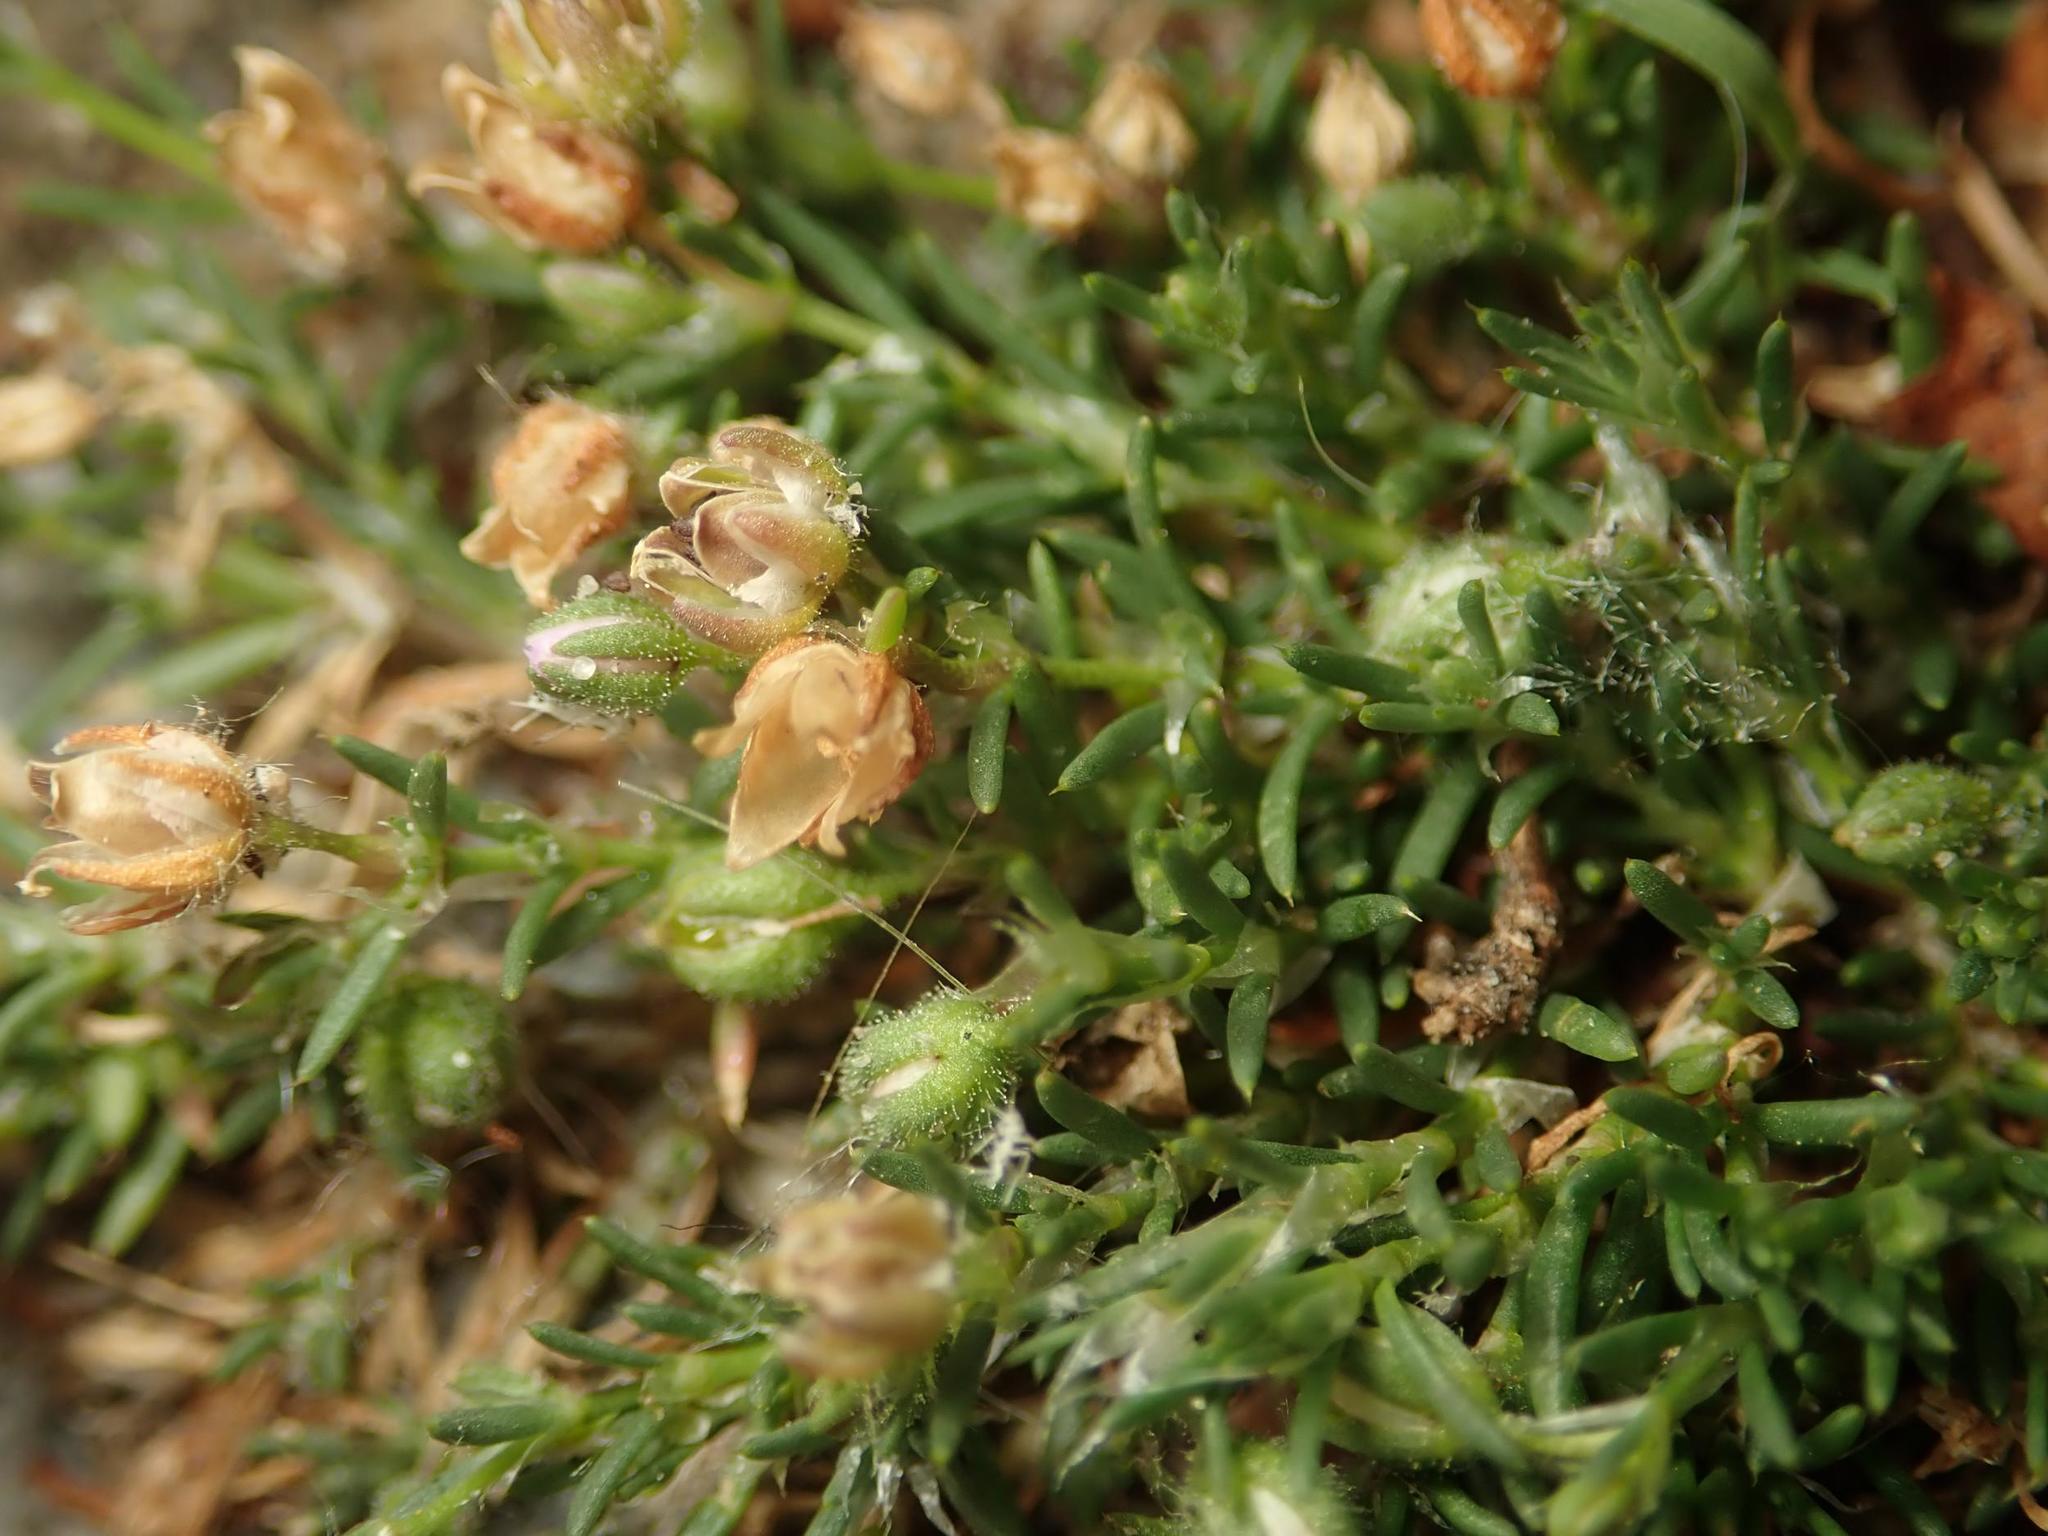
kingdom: Plantae
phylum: Tracheophyta
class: Magnoliopsida
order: Caryophyllales
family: Caryophyllaceae
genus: Spergularia
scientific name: Spergularia rubra
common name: Red sand-spurrey
